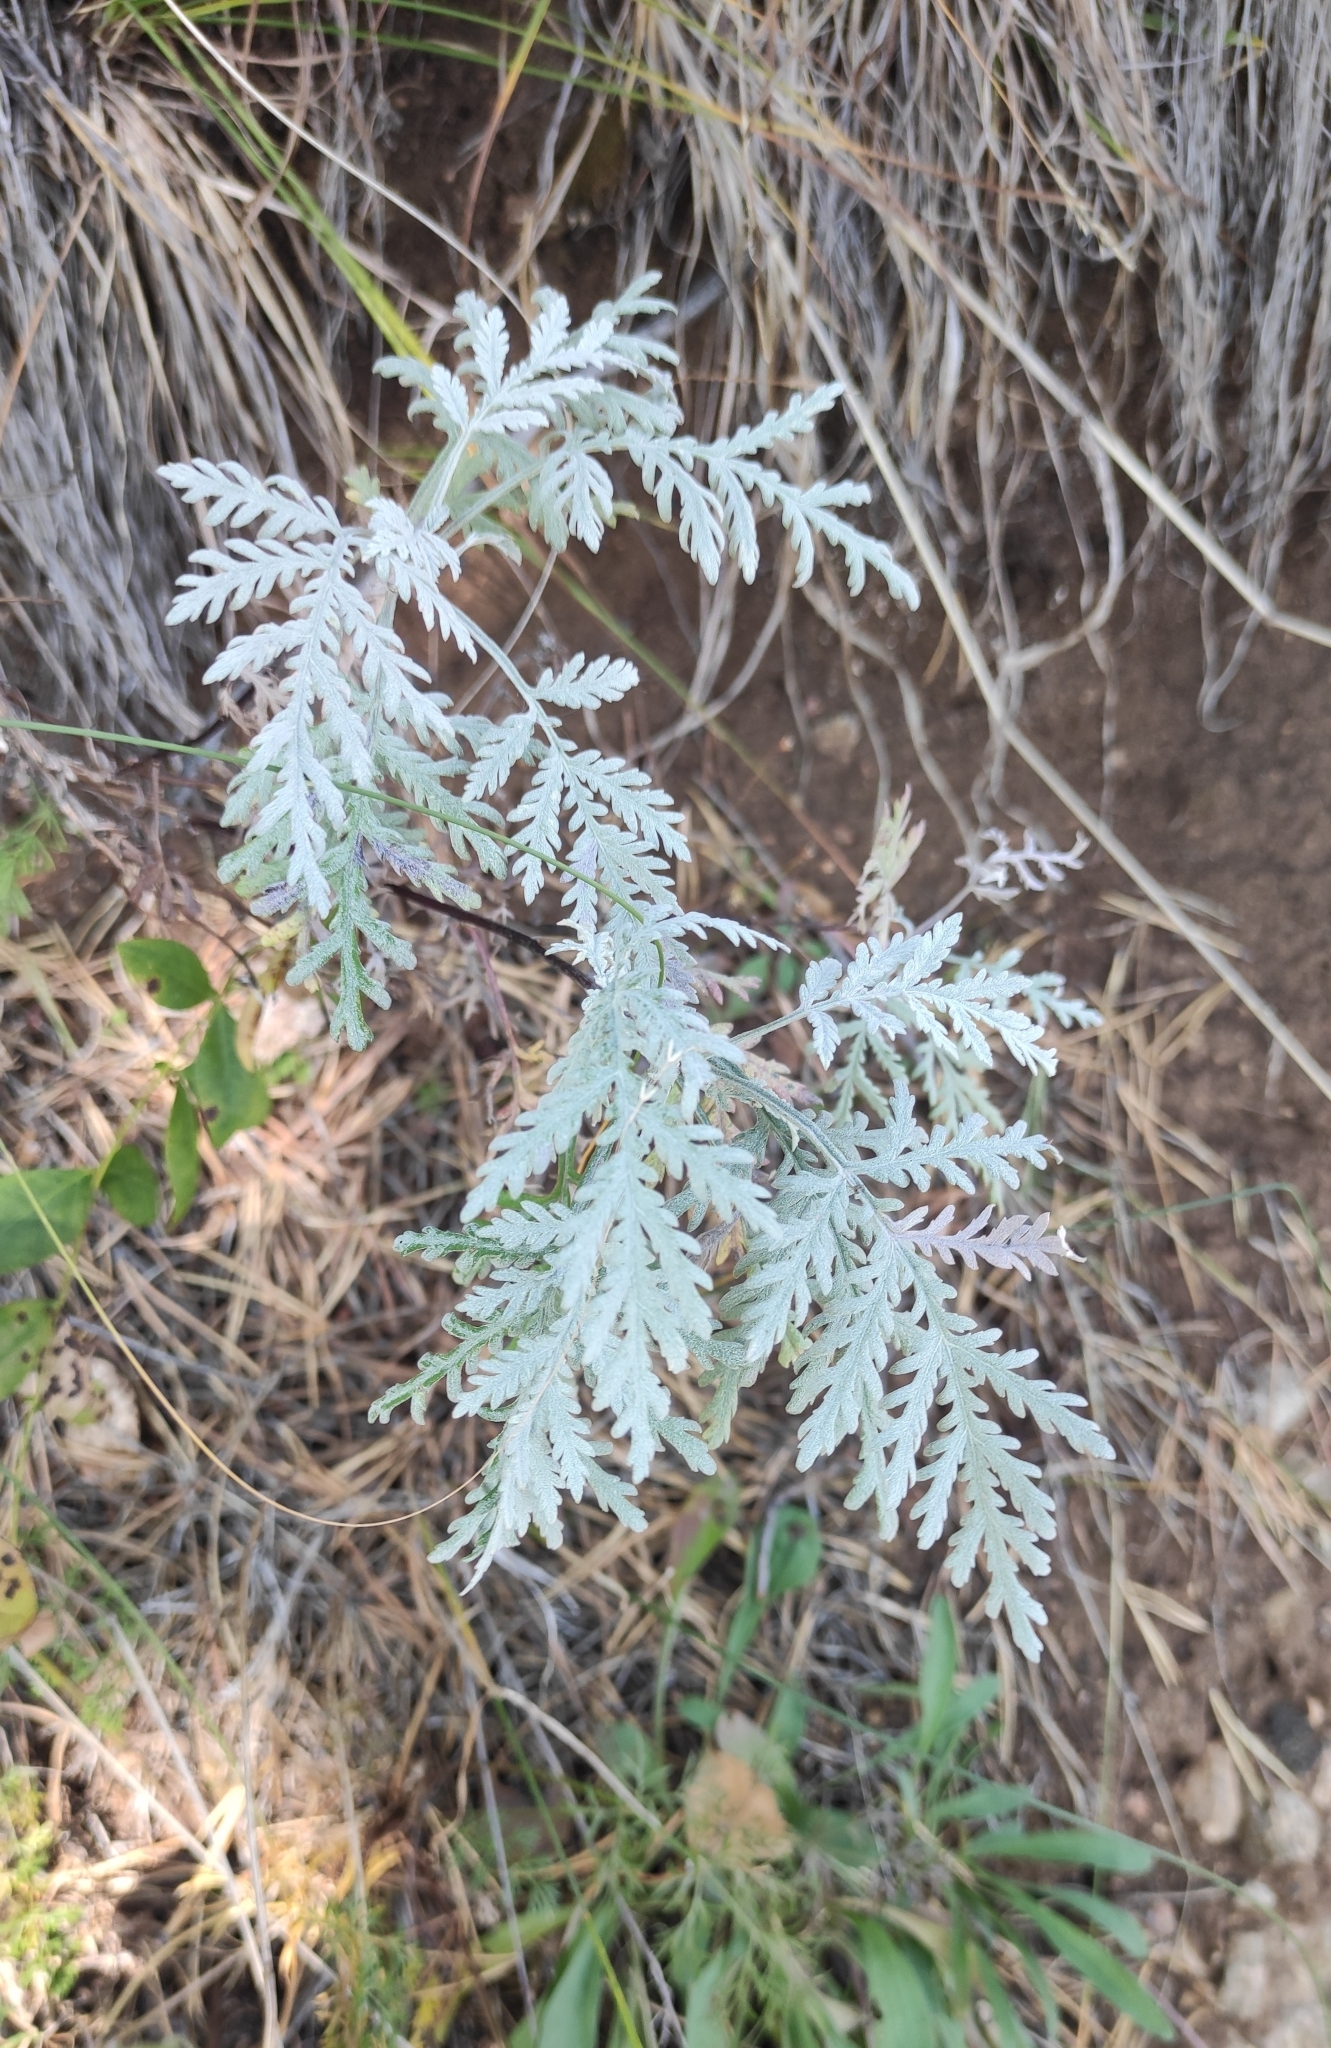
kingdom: Plantae
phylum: Tracheophyta
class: Magnoliopsida
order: Asterales
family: Asteraceae
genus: Artemisia
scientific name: Artemisia gmelinii
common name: Gmelin's wormwood
